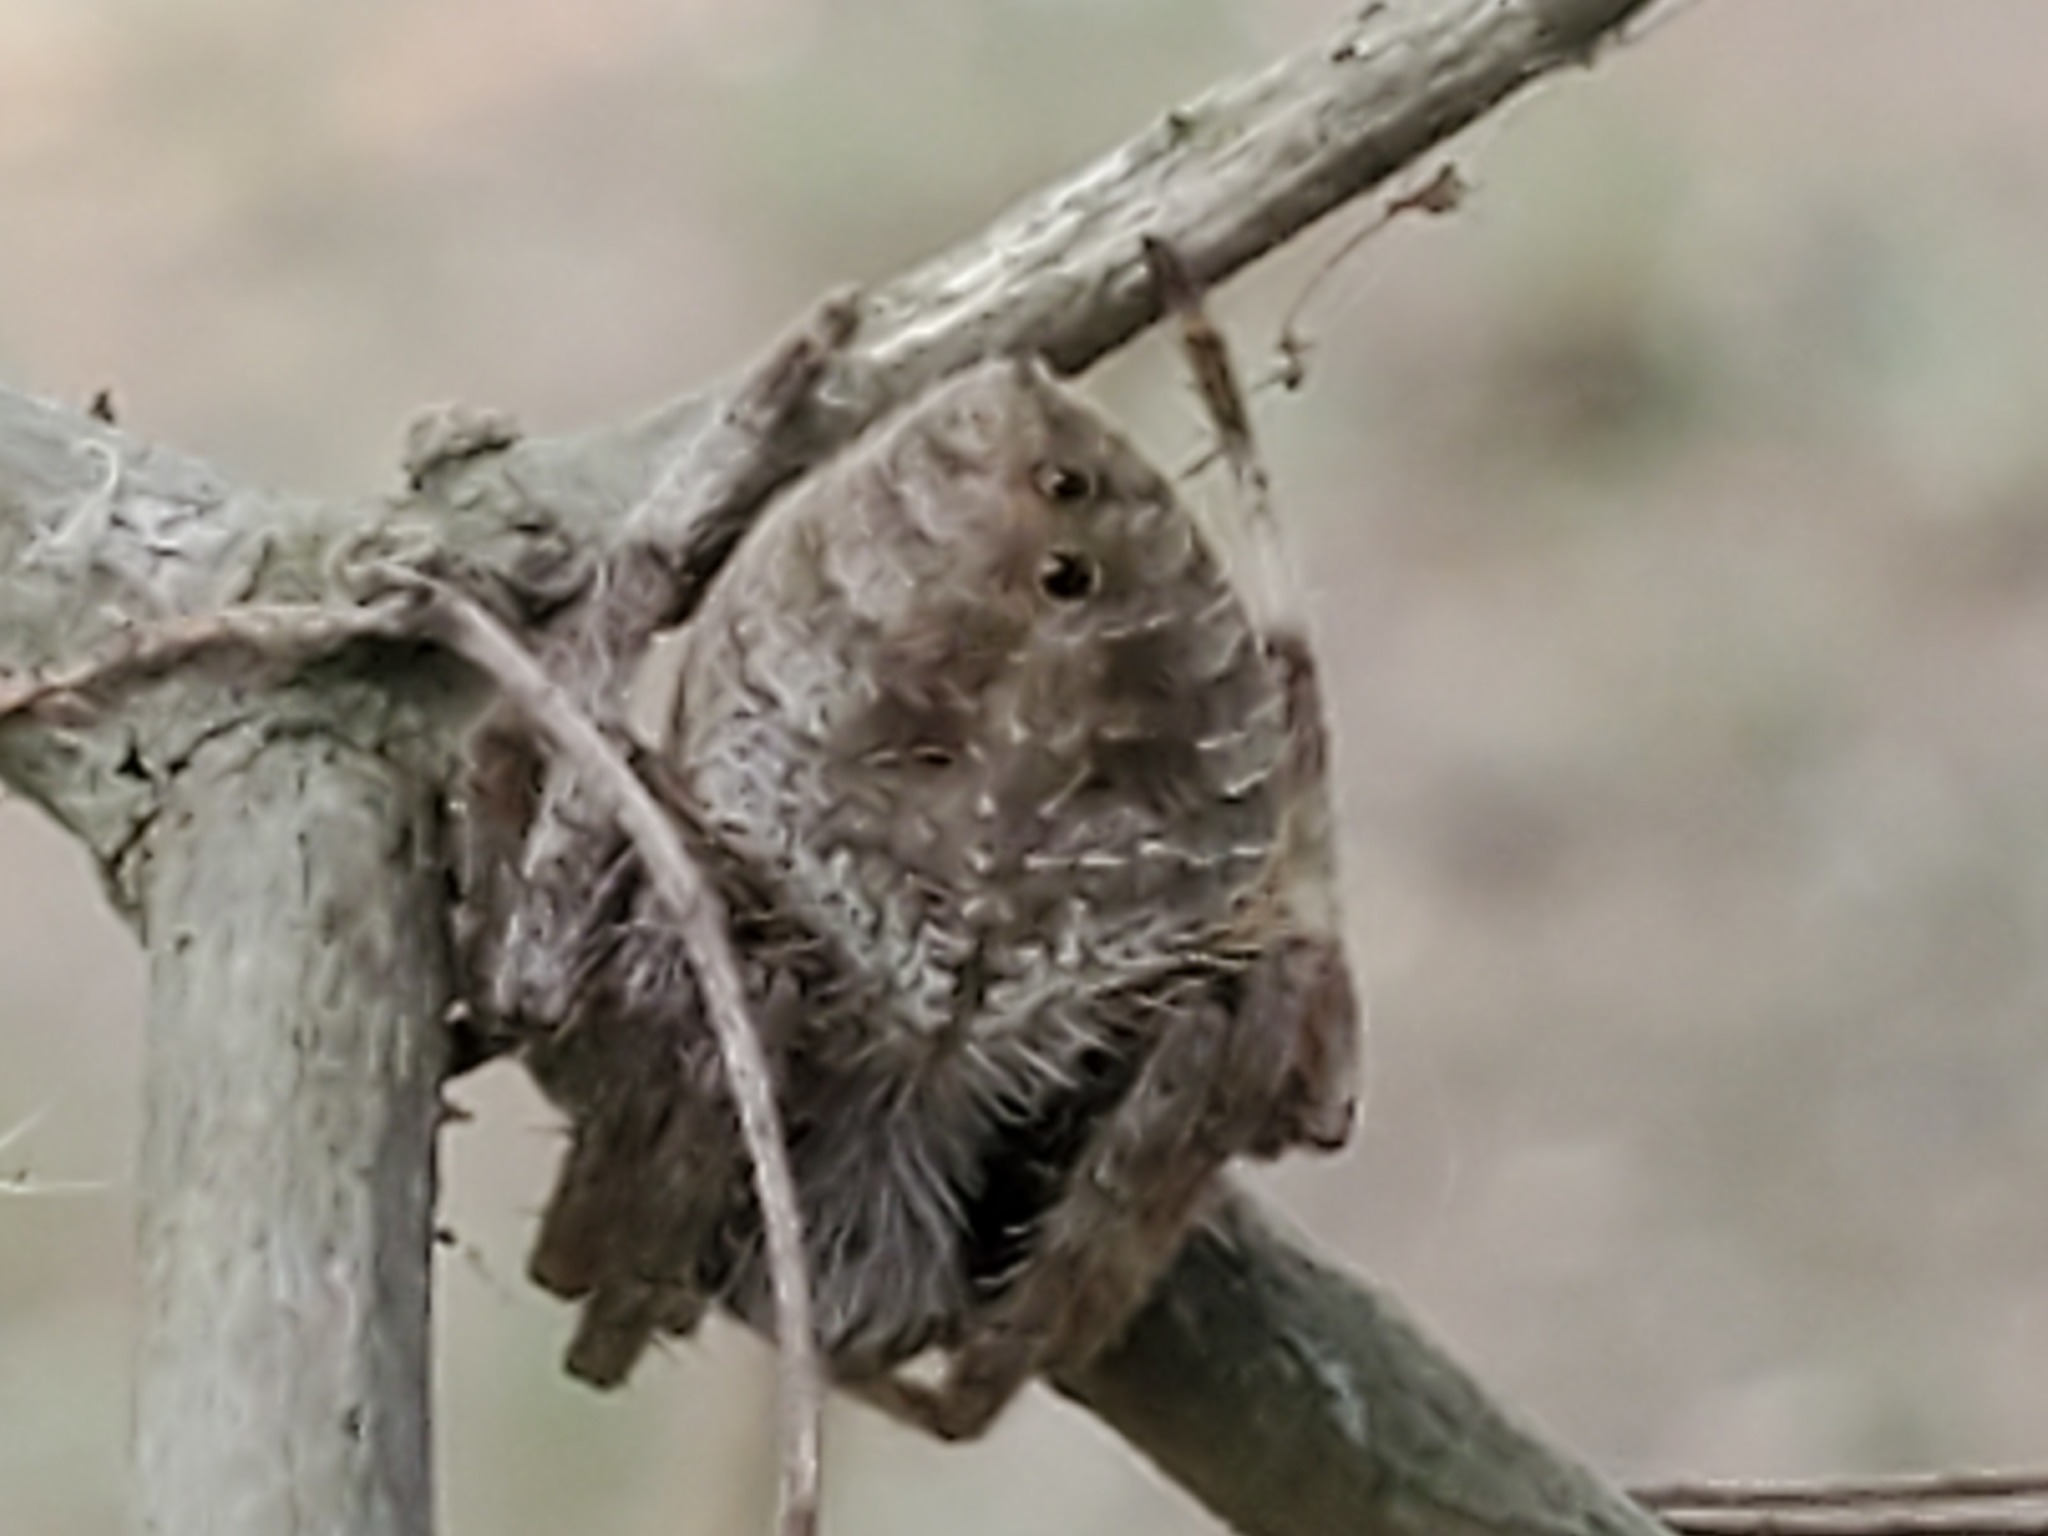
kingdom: Animalia
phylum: Arthropoda
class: Arachnida
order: Araneae
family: Araneidae
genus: Eriophora
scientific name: Eriophora ravilla
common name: Orb weavers
